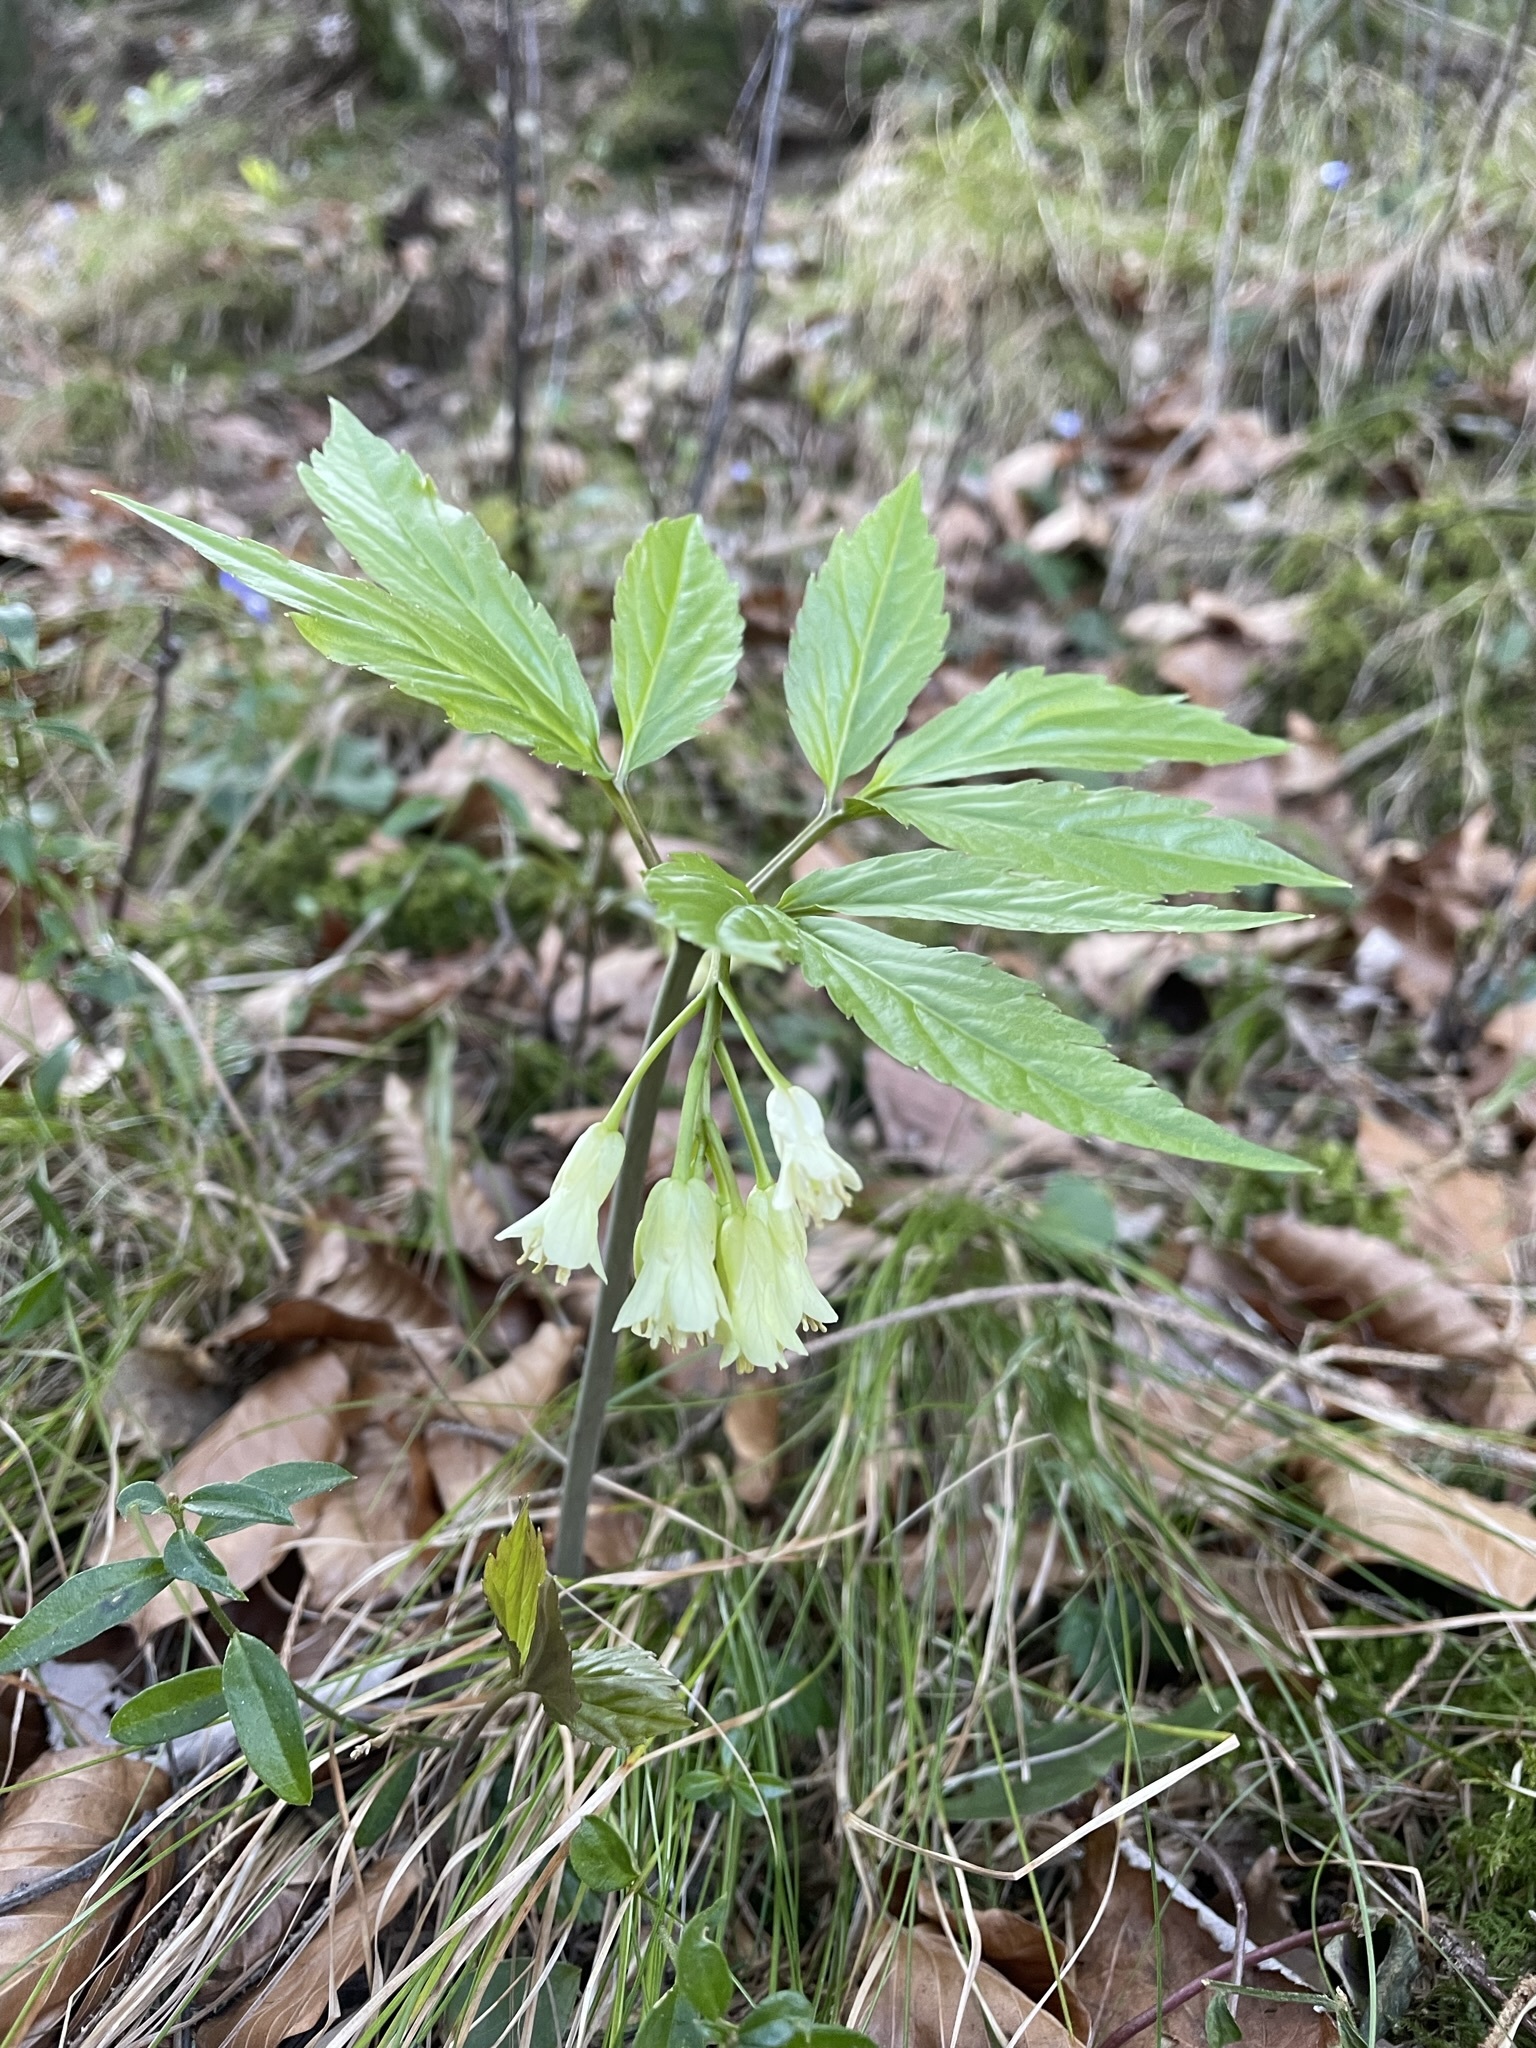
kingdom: Plantae
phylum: Tracheophyta
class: Magnoliopsida
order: Brassicales
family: Brassicaceae
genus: Cardamine
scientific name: Cardamine enneaphyllos
